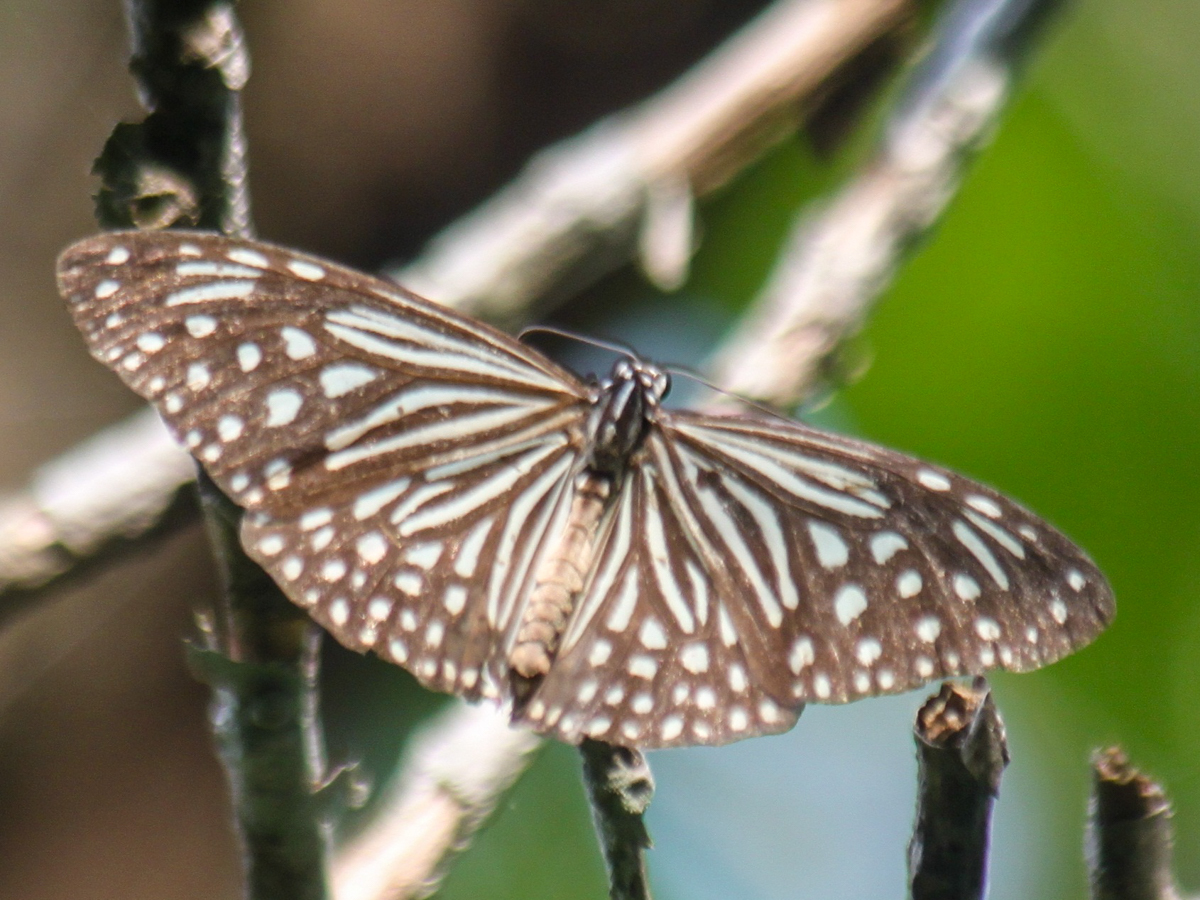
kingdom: Animalia
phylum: Arthropoda
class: Insecta
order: Lepidoptera
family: Nymphalidae
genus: Parantica
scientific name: Parantica agleoides
